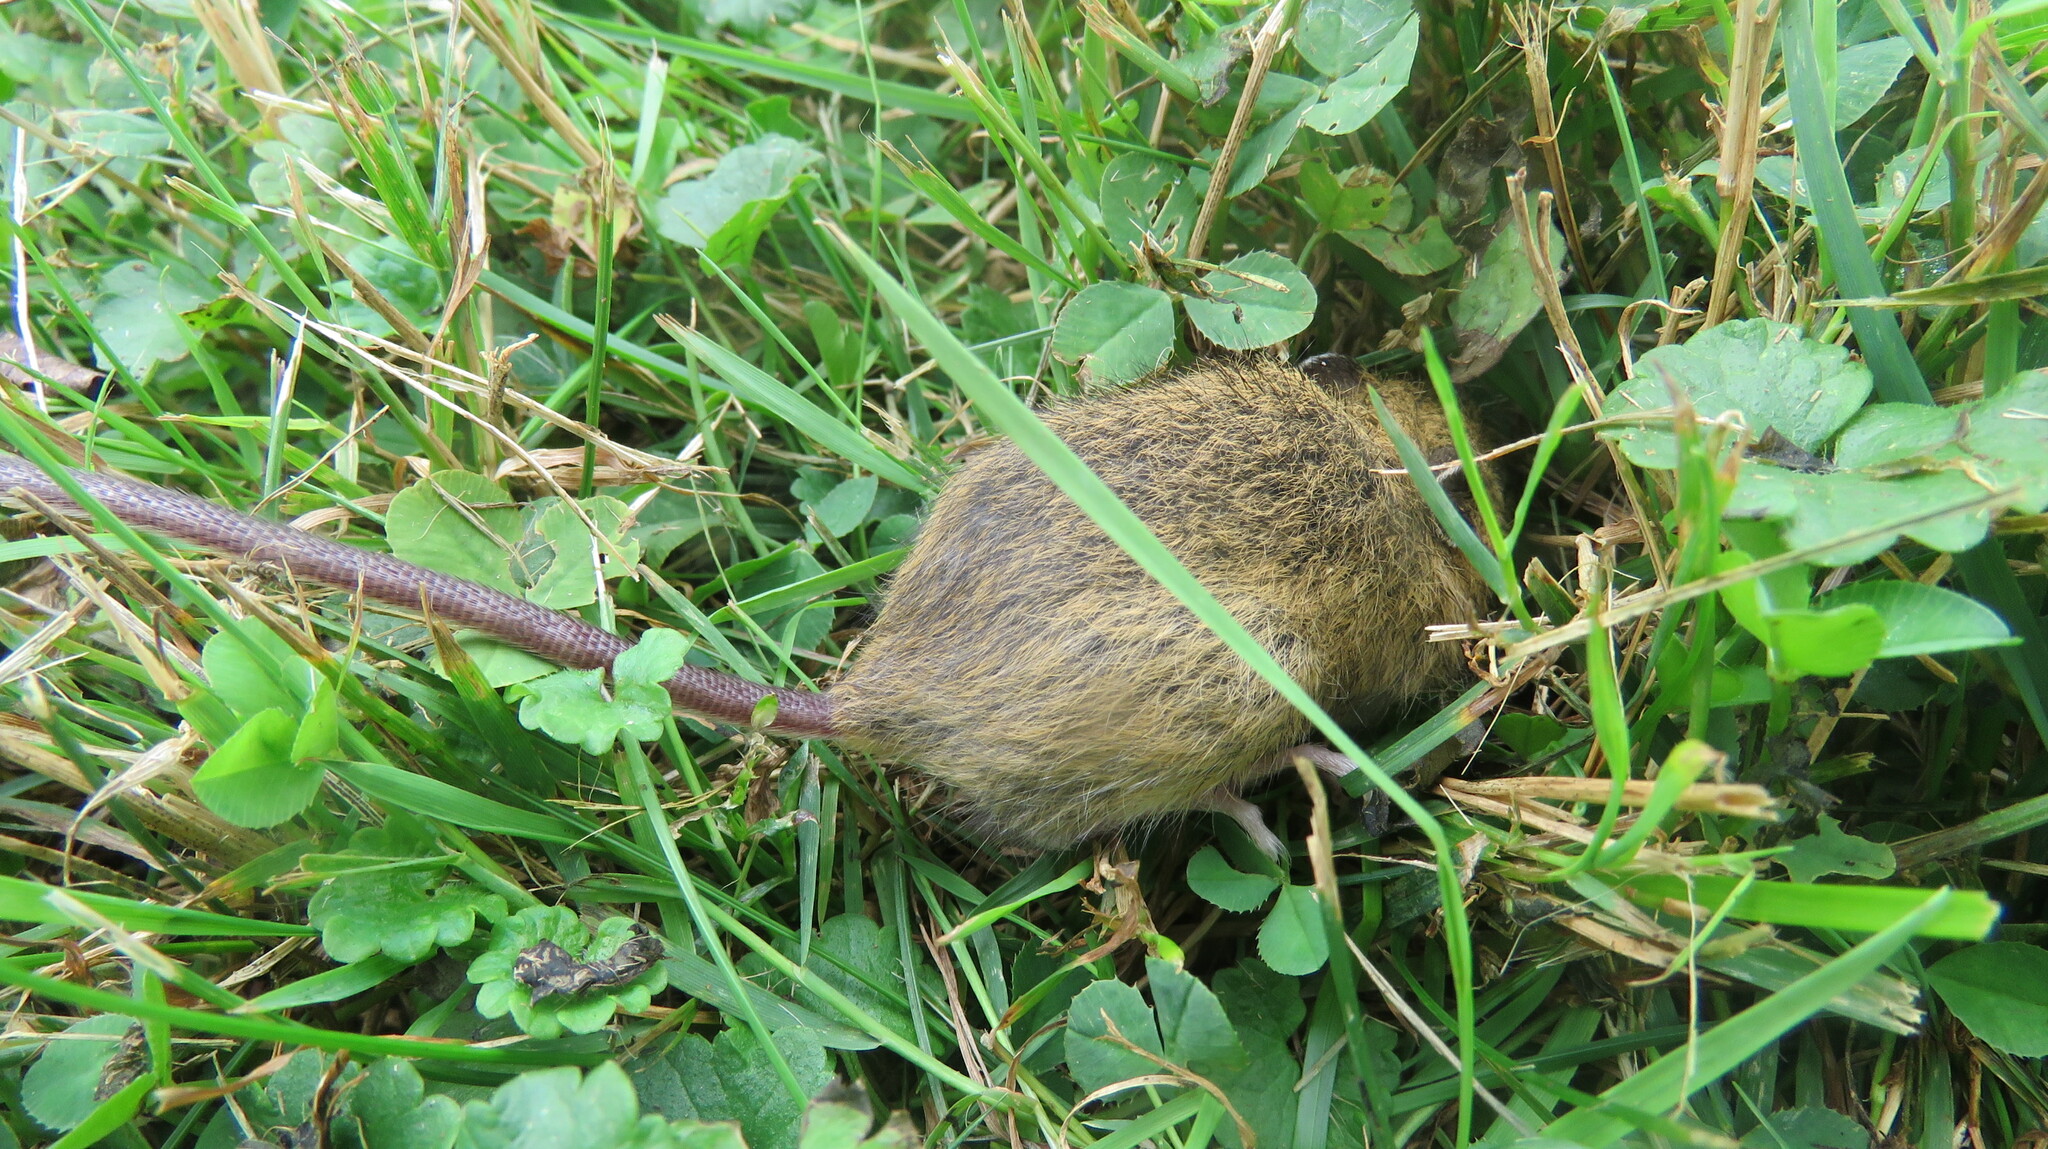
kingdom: Animalia
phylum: Chordata
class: Mammalia
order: Rodentia
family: Dipodidae
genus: Zapus
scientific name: Zapus hudsonius
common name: Meadow jumping mouse
